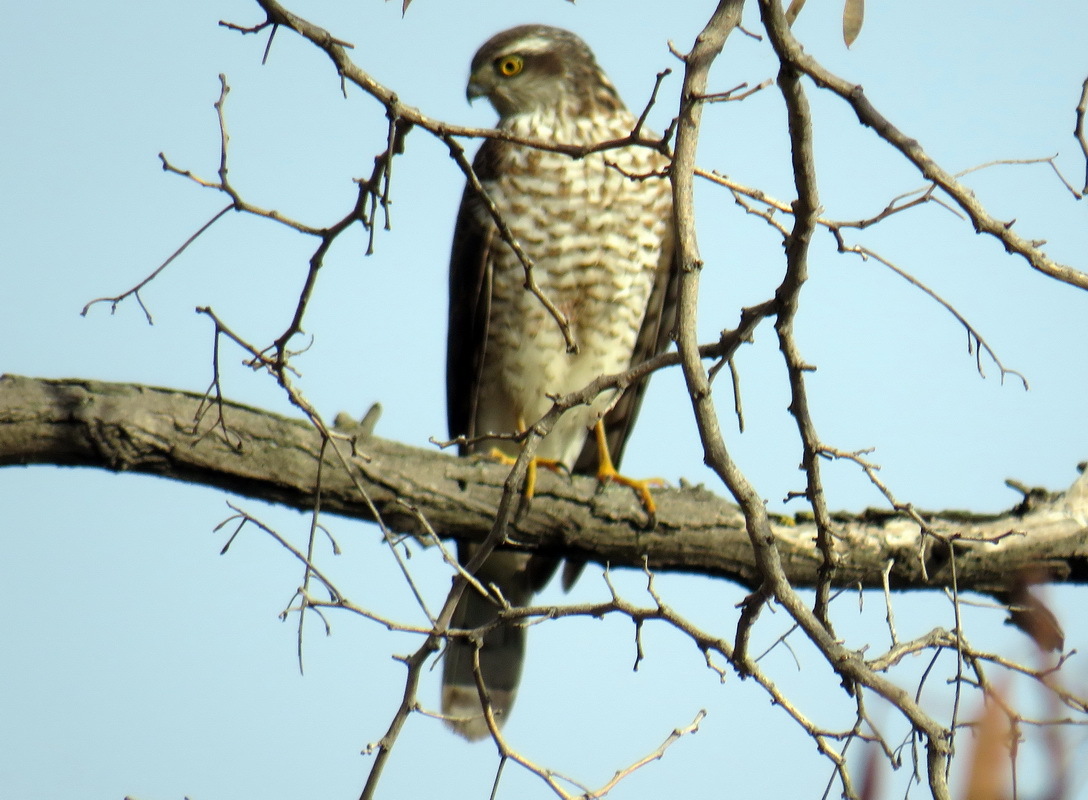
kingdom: Animalia
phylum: Chordata
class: Aves
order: Accipitriformes
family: Accipitridae
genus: Accipiter
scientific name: Accipiter nisus
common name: Eurasian sparrowhawk
